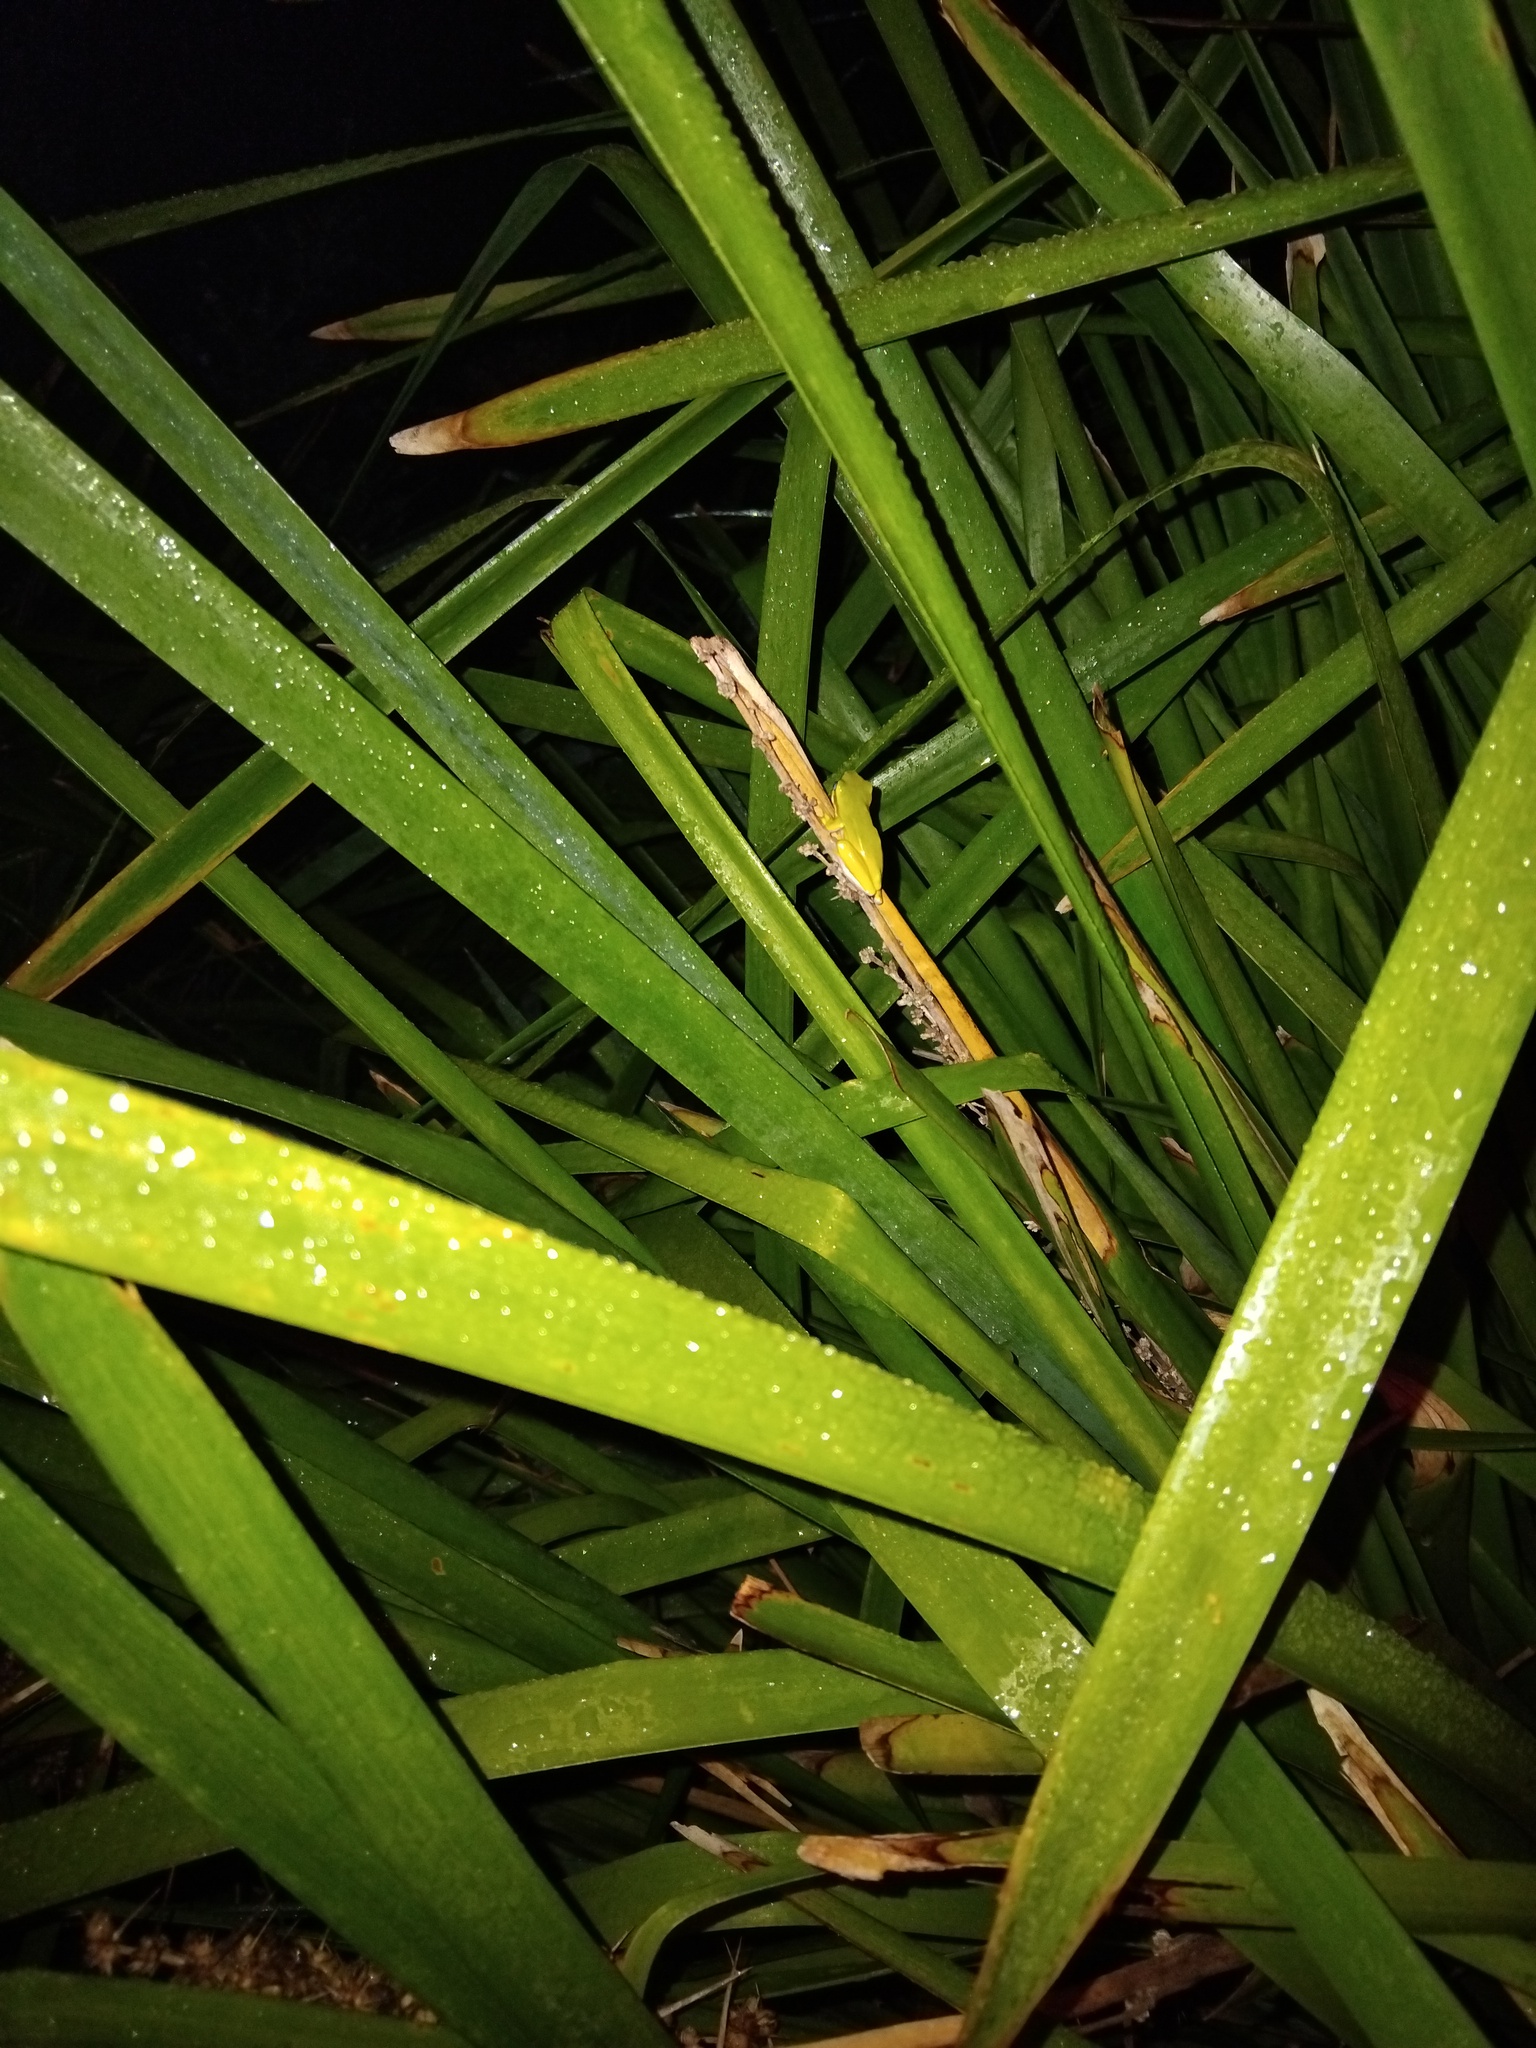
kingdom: Animalia
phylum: Chordata
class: Amphibia
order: Anura
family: Pelodryadidae
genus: Litoria
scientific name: Litoria fallax
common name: Eastern dwarf treefrog
